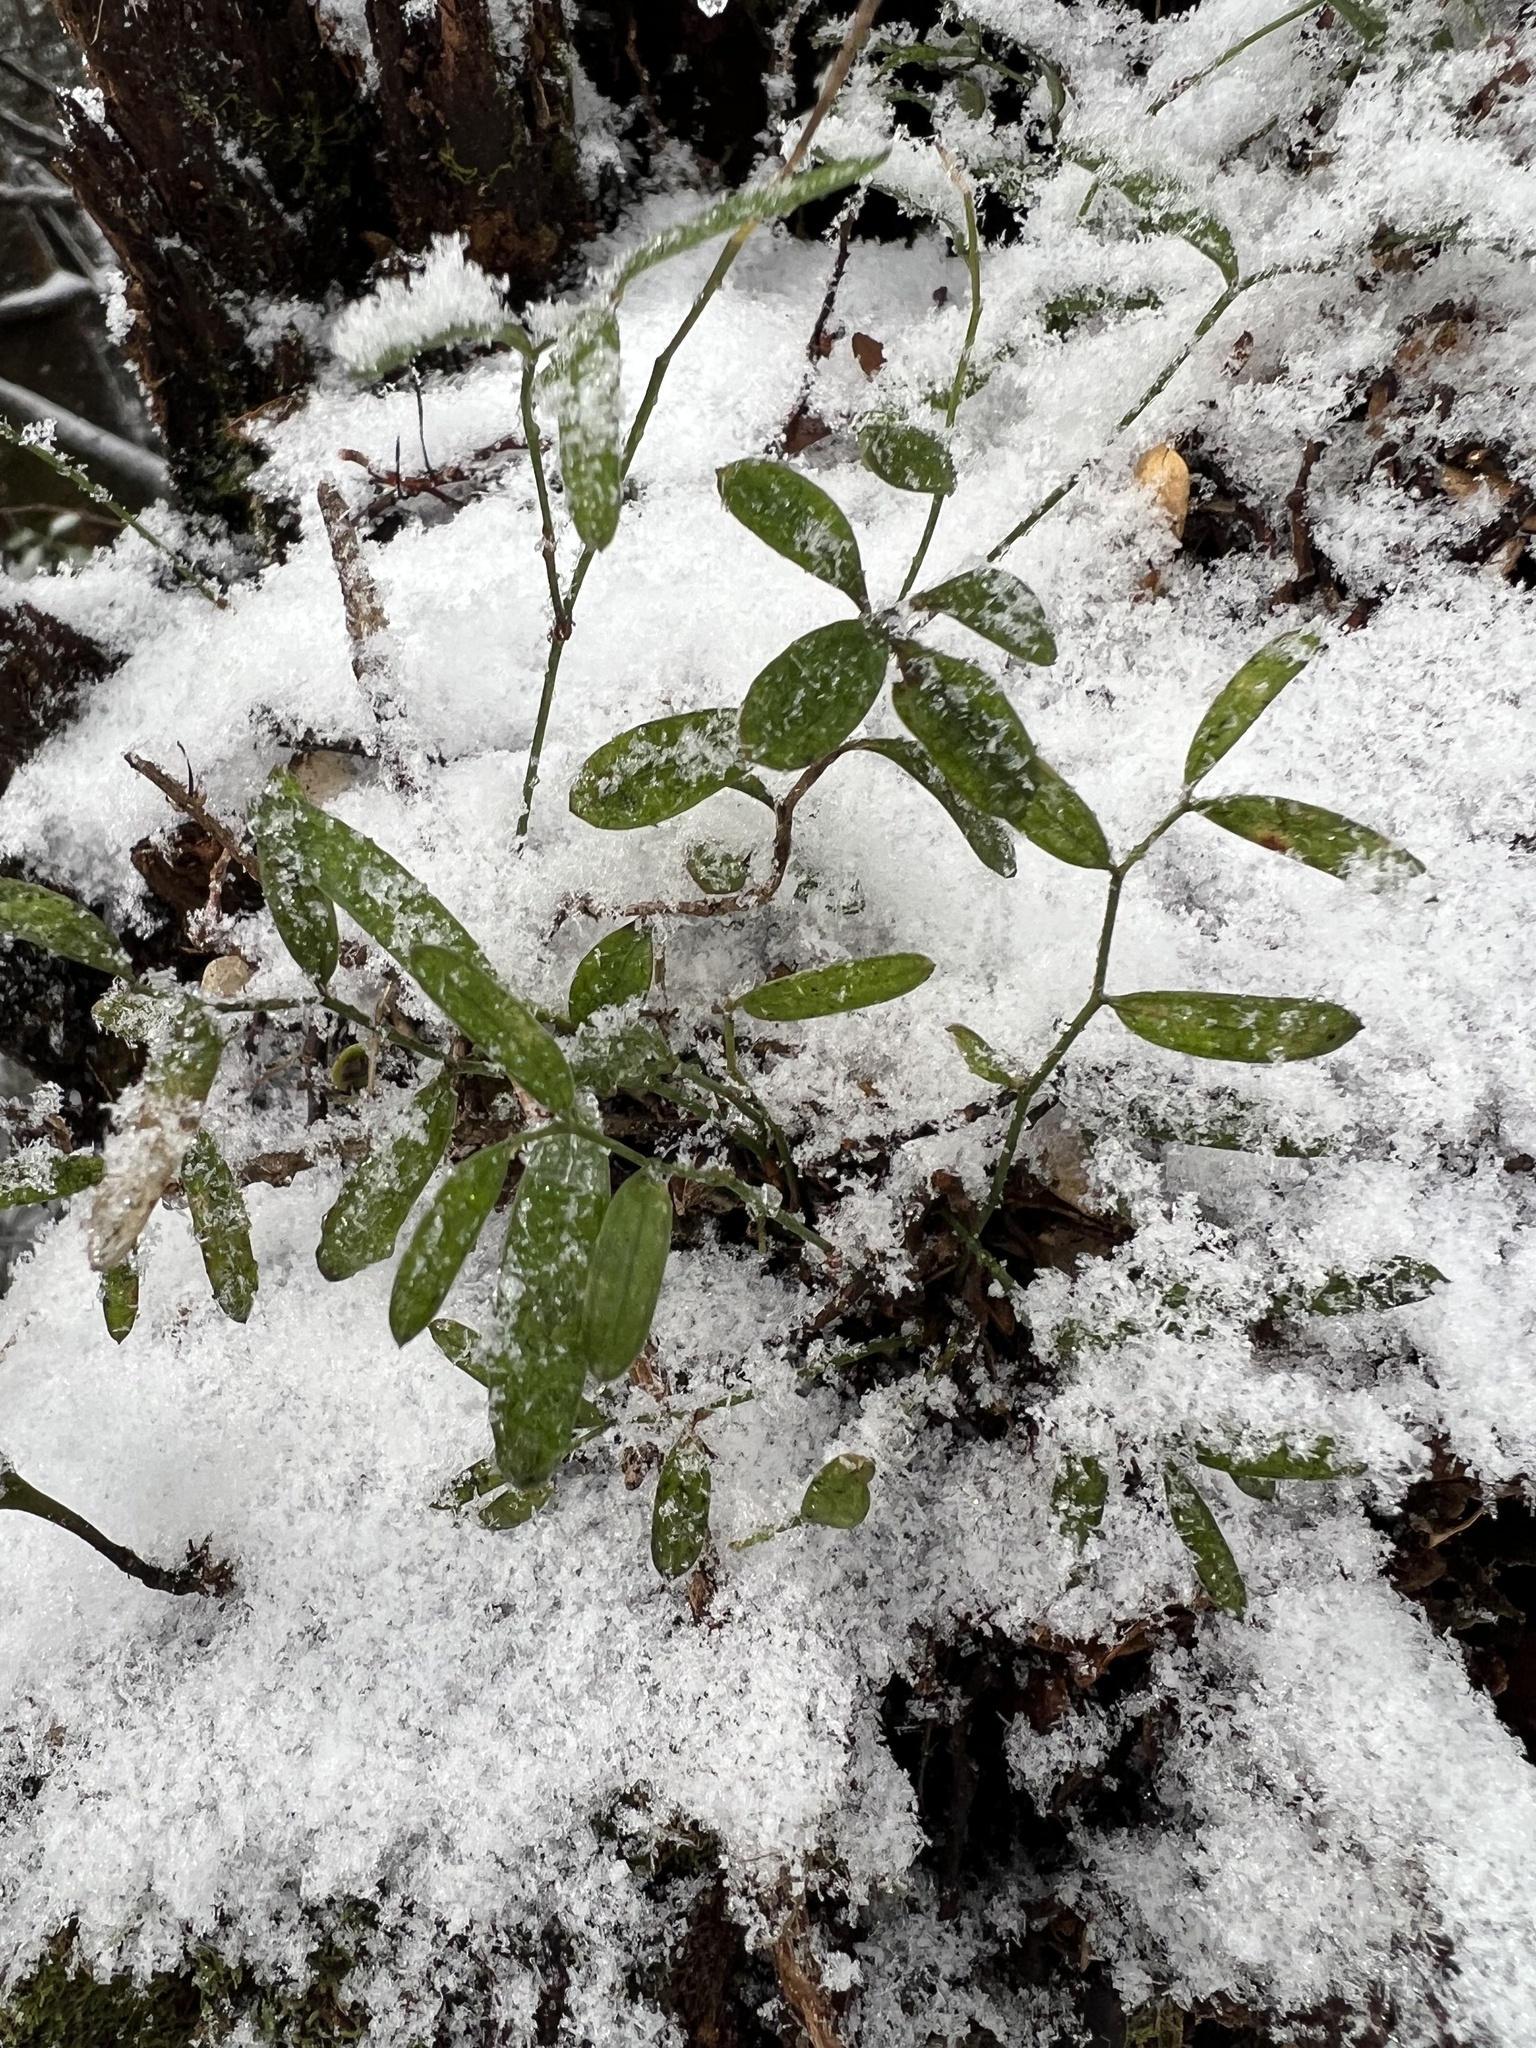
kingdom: Plantae
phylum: Tracheophyta
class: Liliopsida
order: Liliales
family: Alstroemeriaceae
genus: Luzuriaga
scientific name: Luzuriaga parviflora
